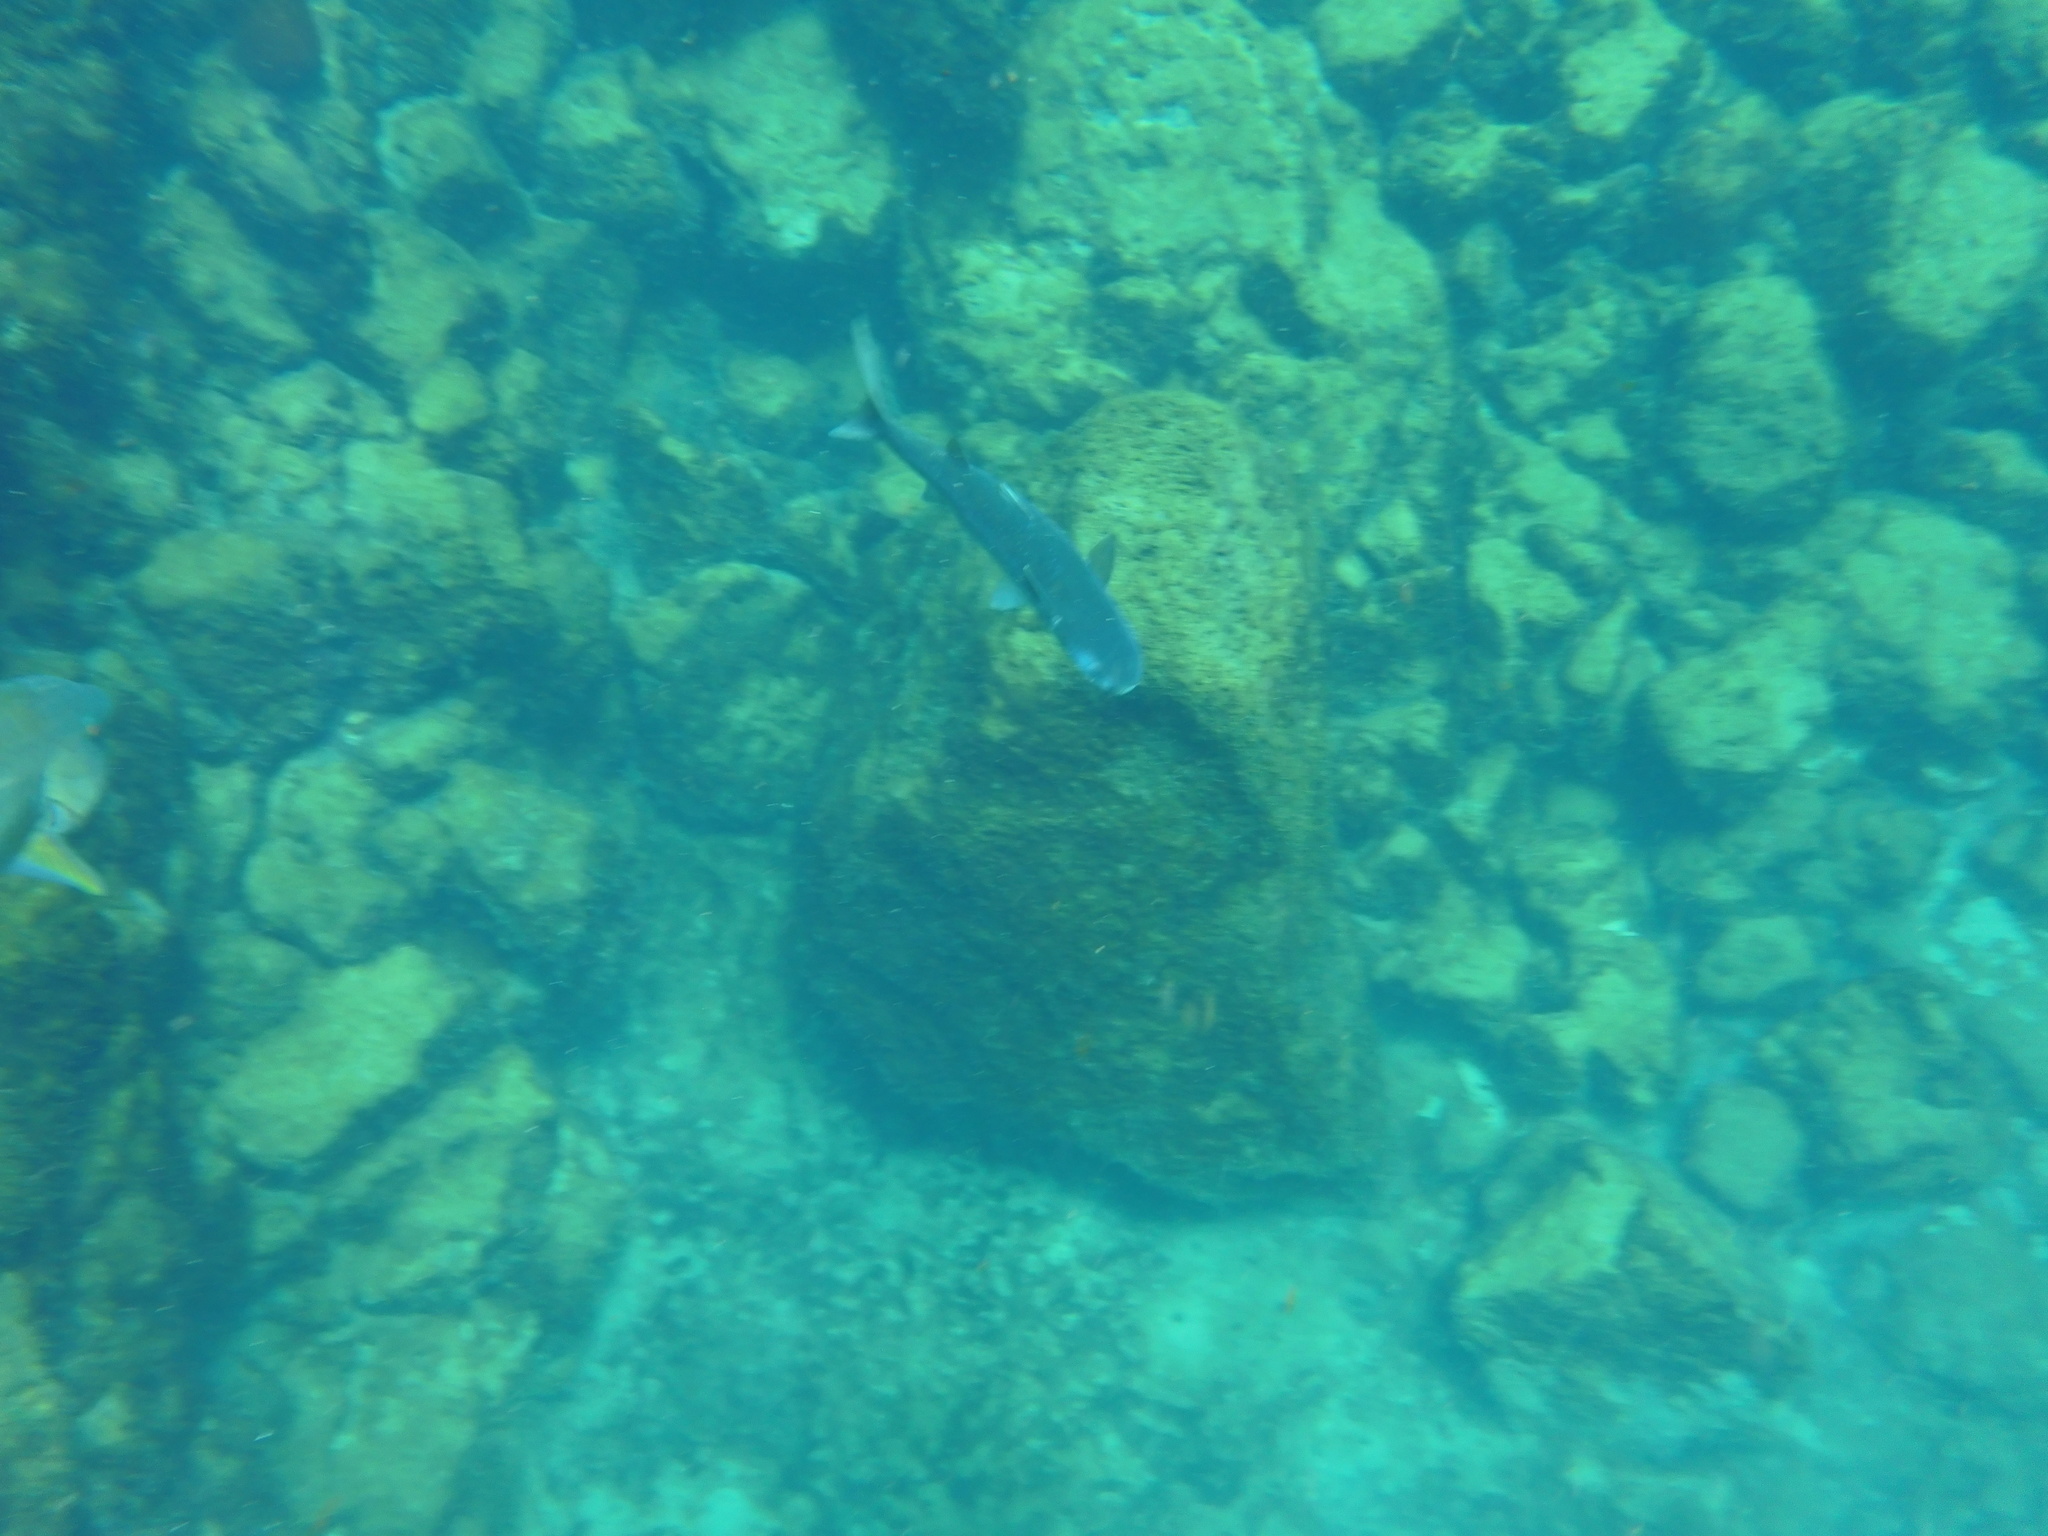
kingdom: Animalia
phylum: Chordata
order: Mugiliformes
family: Mugilidae
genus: Mugil
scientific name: Mugil cephalus
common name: Grey mullet
